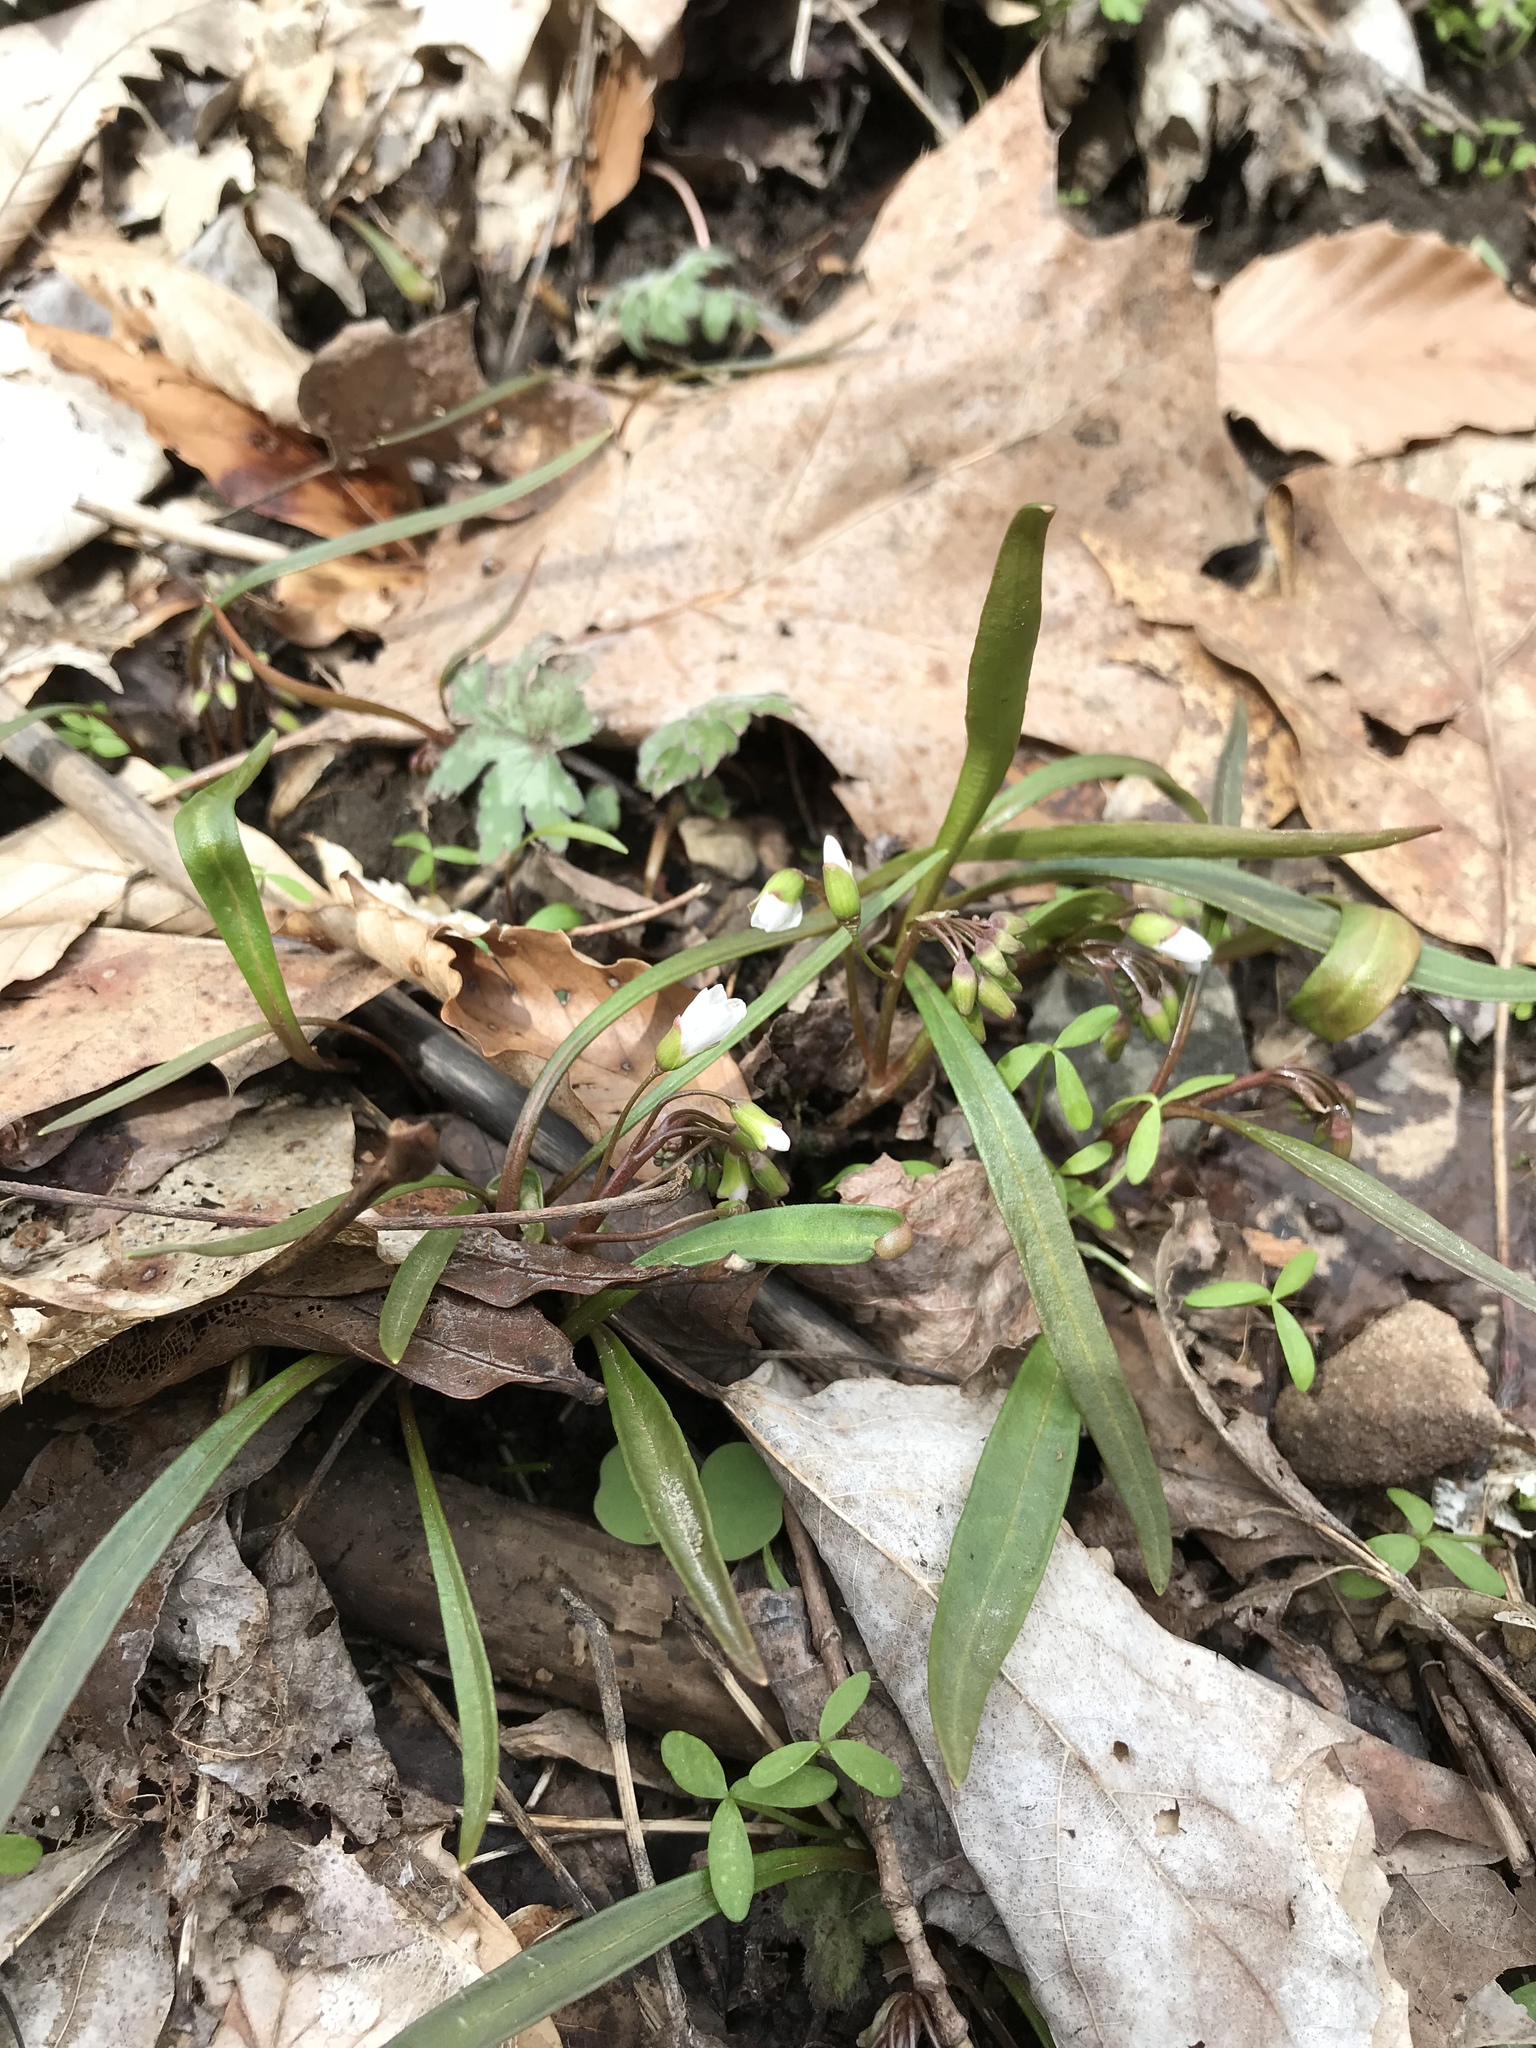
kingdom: Plantae
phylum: Tracheophyta
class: Magnoliopsida
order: Caryophyllales
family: Montiaceae
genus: Claytonia
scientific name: Claytonia virginica
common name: Virginia springbeauty
